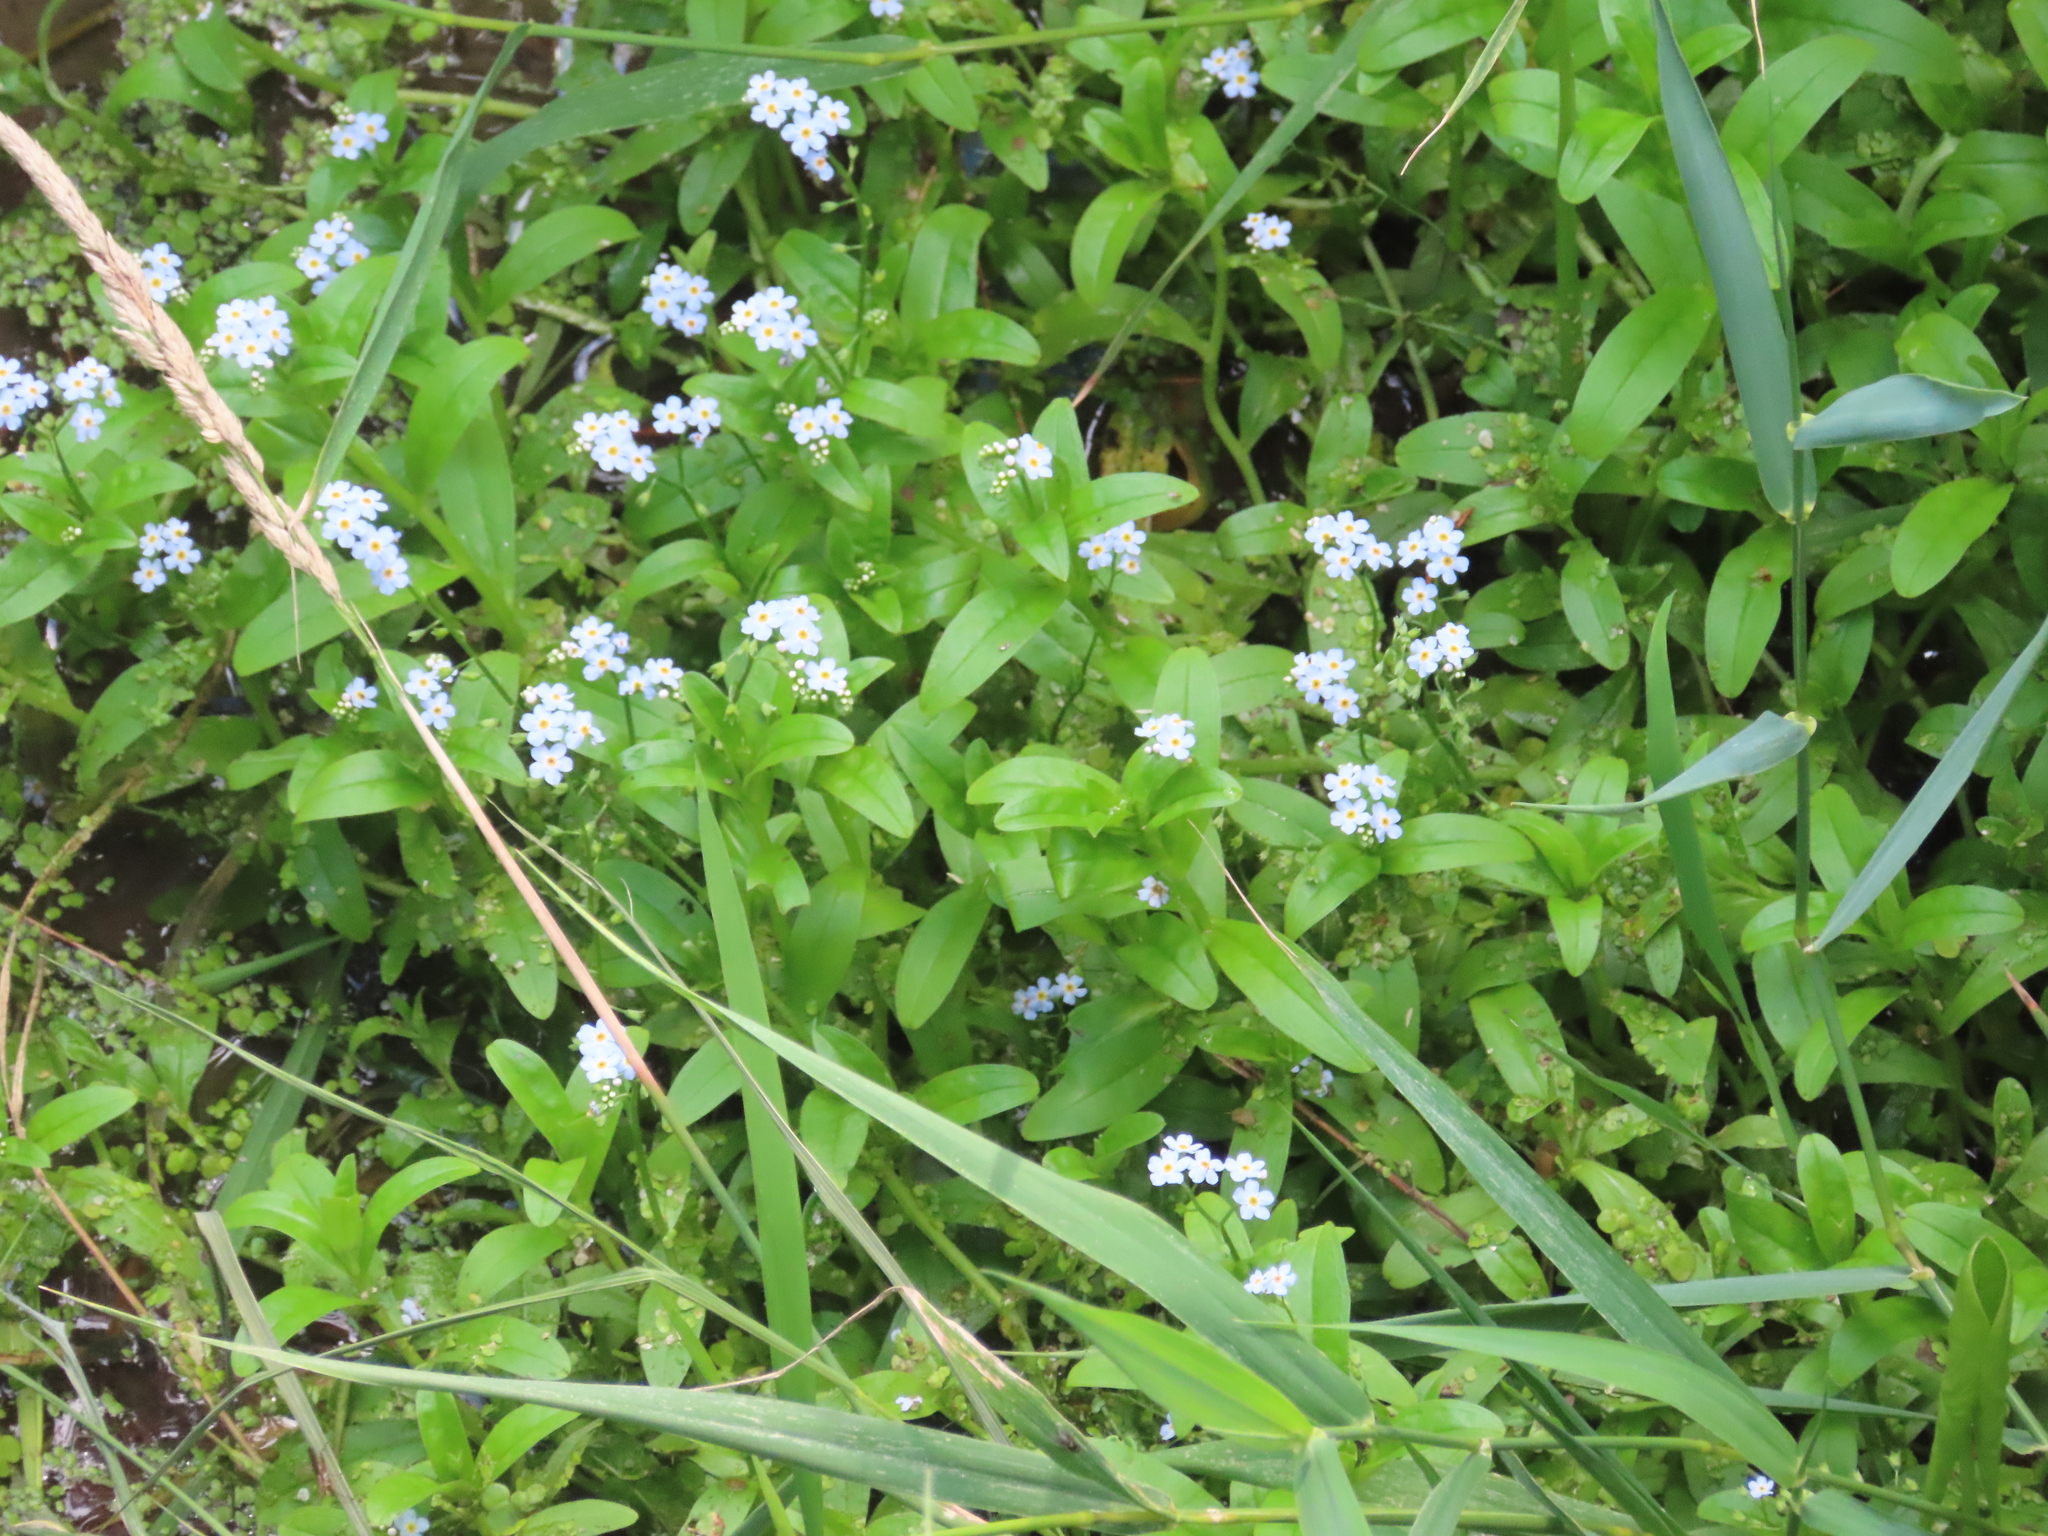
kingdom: Plantae
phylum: Tracheophyta
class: Magnoliopsida
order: Boraginales
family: Boraginaceae
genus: Myosotis
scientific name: Myosotis scorpioides
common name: Water forget-me-not
